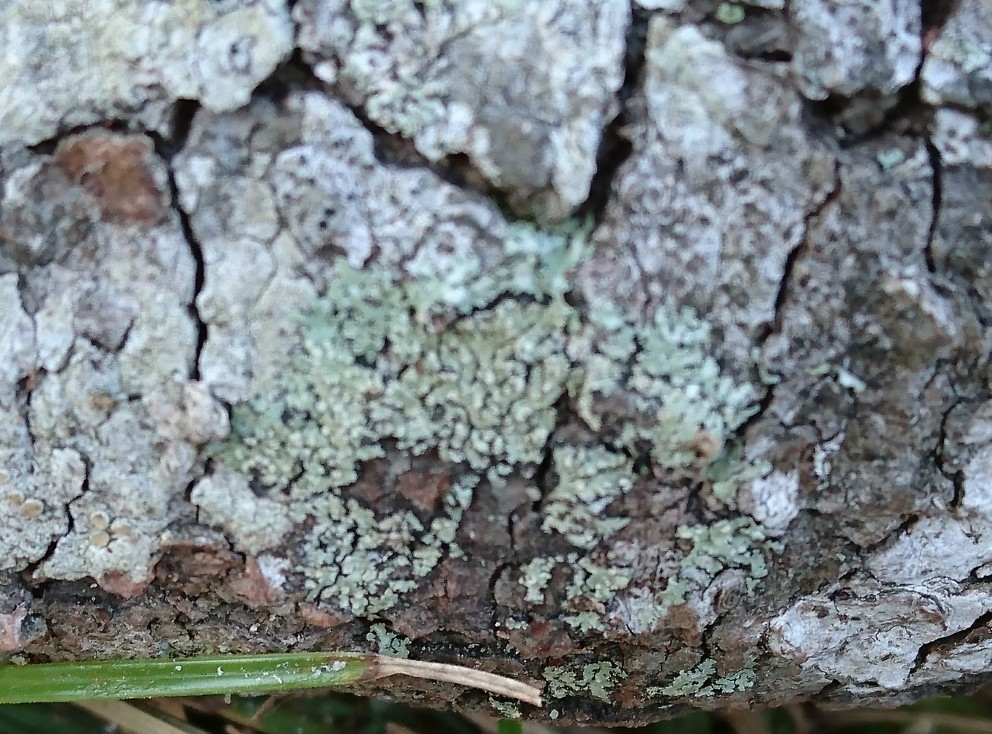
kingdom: Fungi
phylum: Ascomycota
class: Lecanoromycetes
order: Caliciales
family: Caliciaceae
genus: Pyxine
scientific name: Pyxine subcinerea
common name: Mustard lichen
